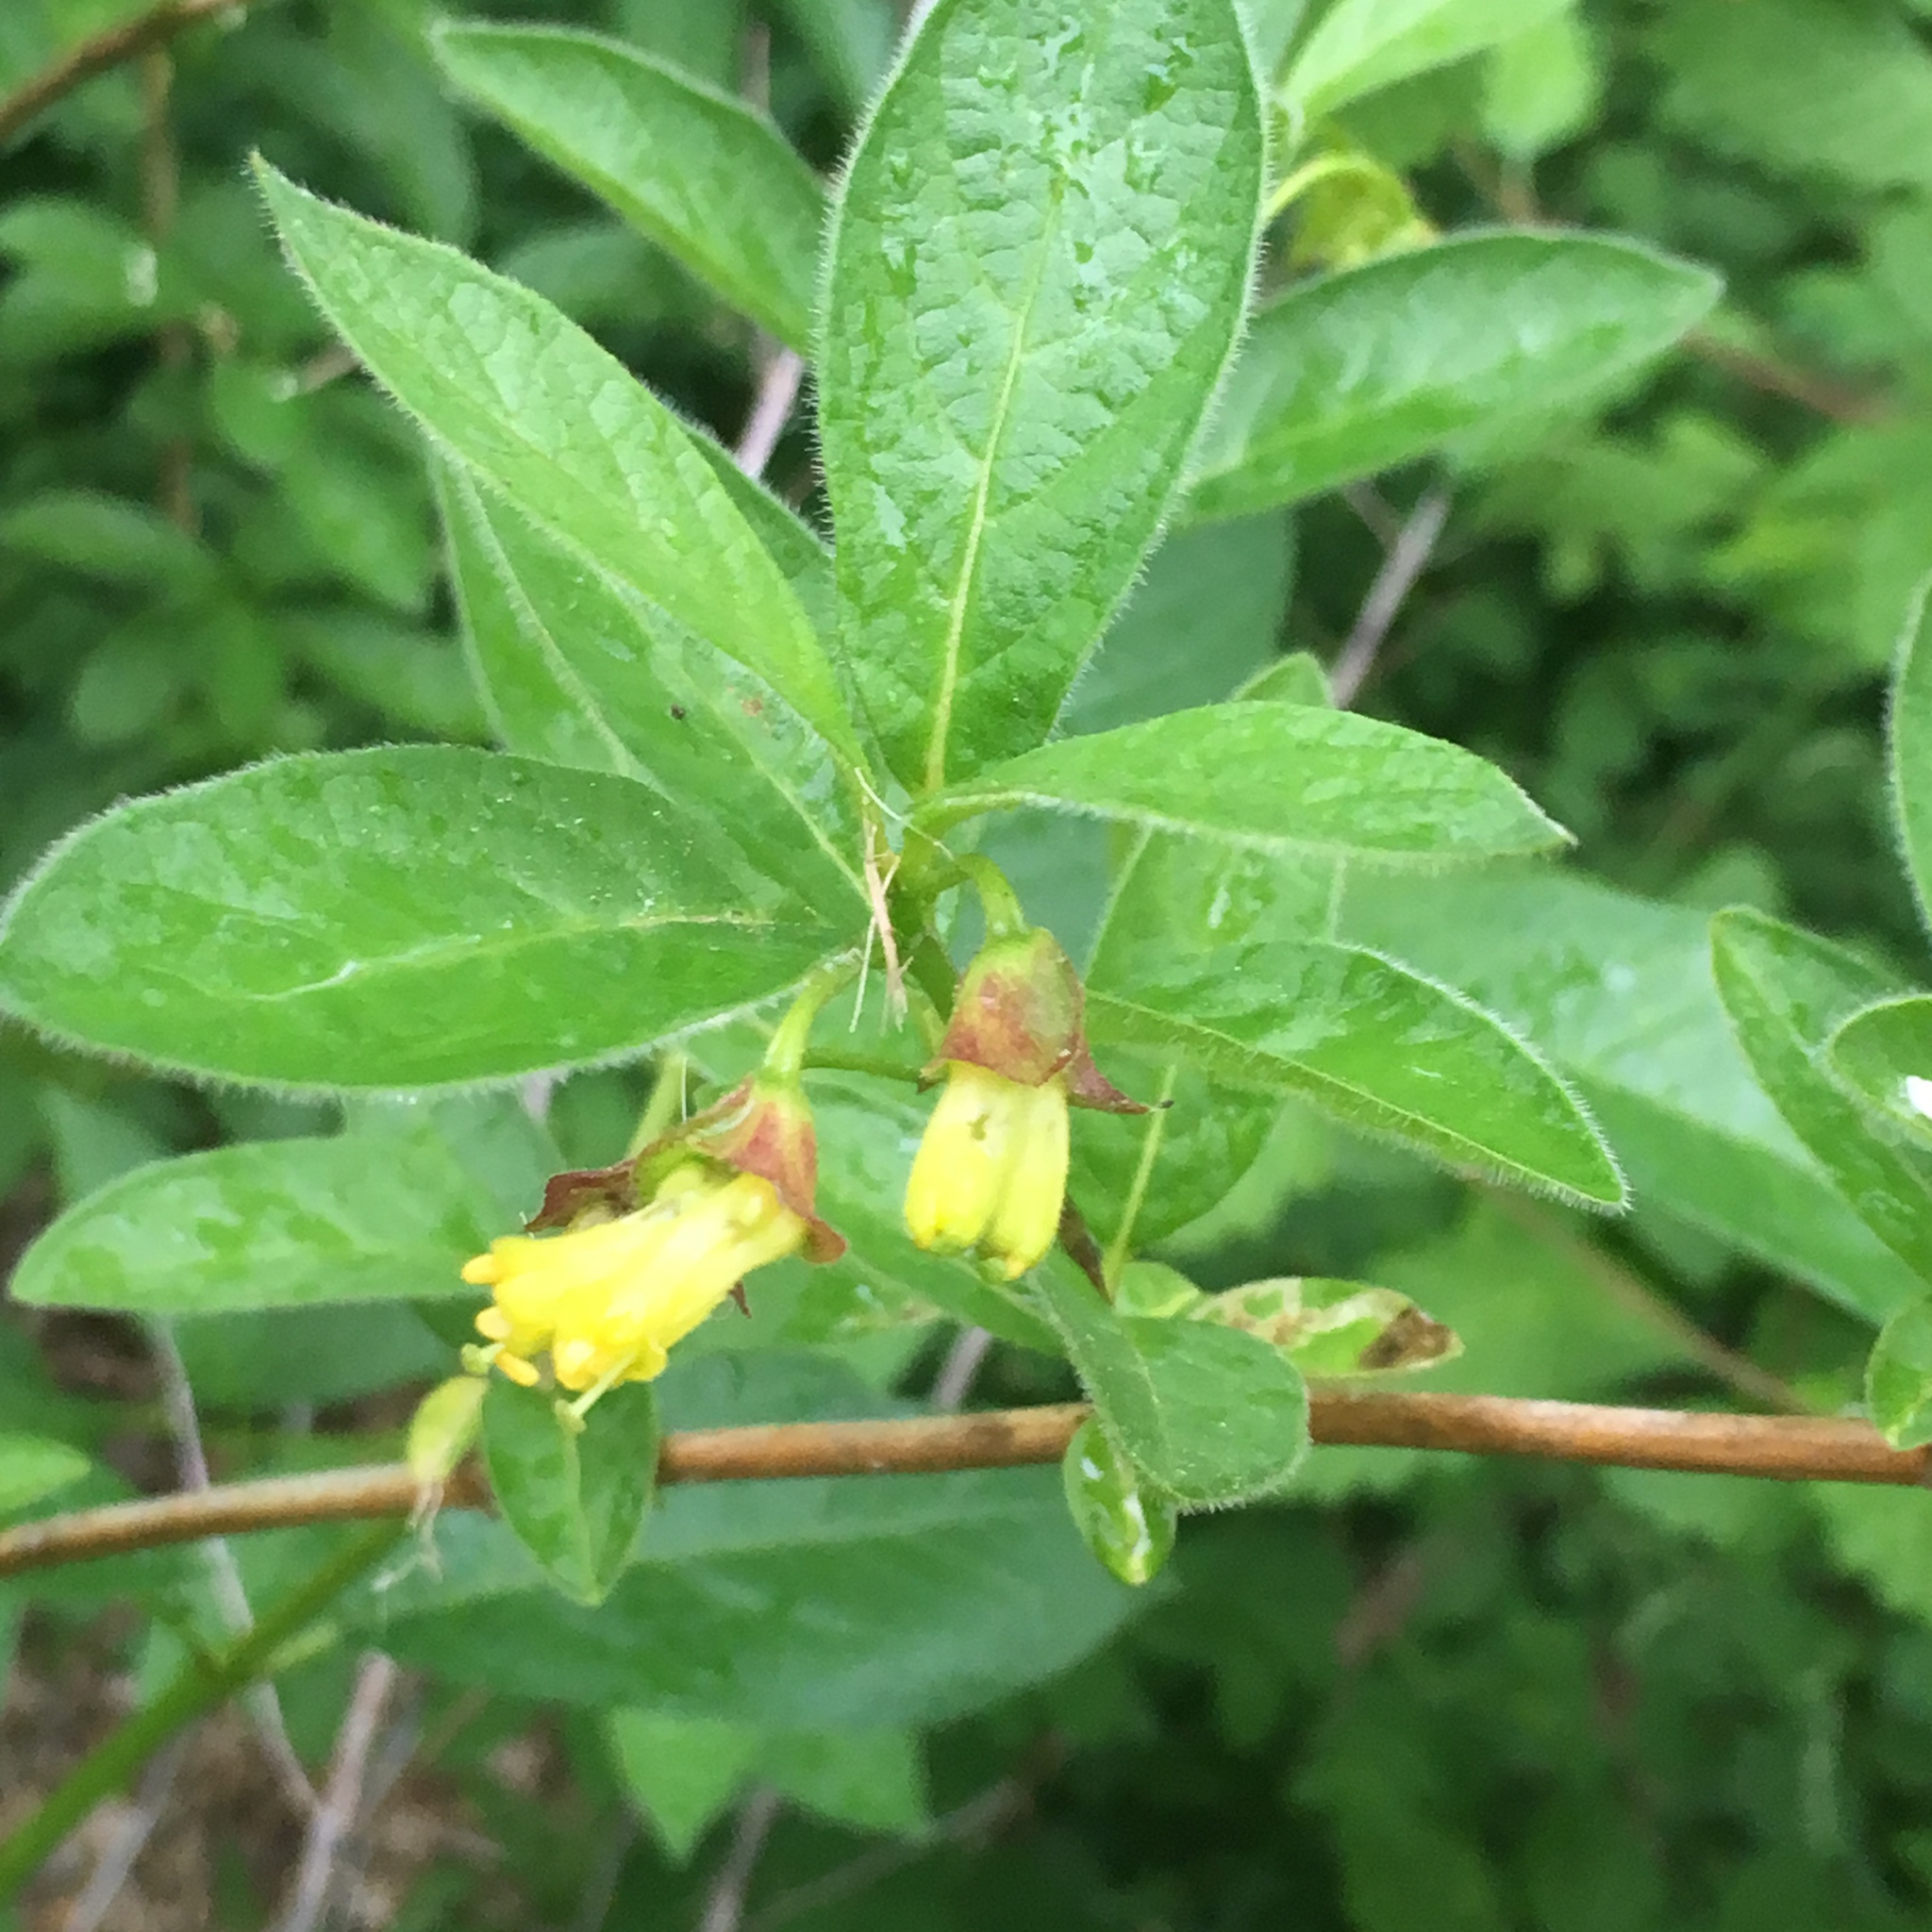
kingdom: Plantae
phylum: Tracheophyta
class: Magnoliopsida
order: Dipsacales
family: Caprifoliaceae
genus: Lonicera
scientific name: Lonicera involucrata
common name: Californian honeysuckle
